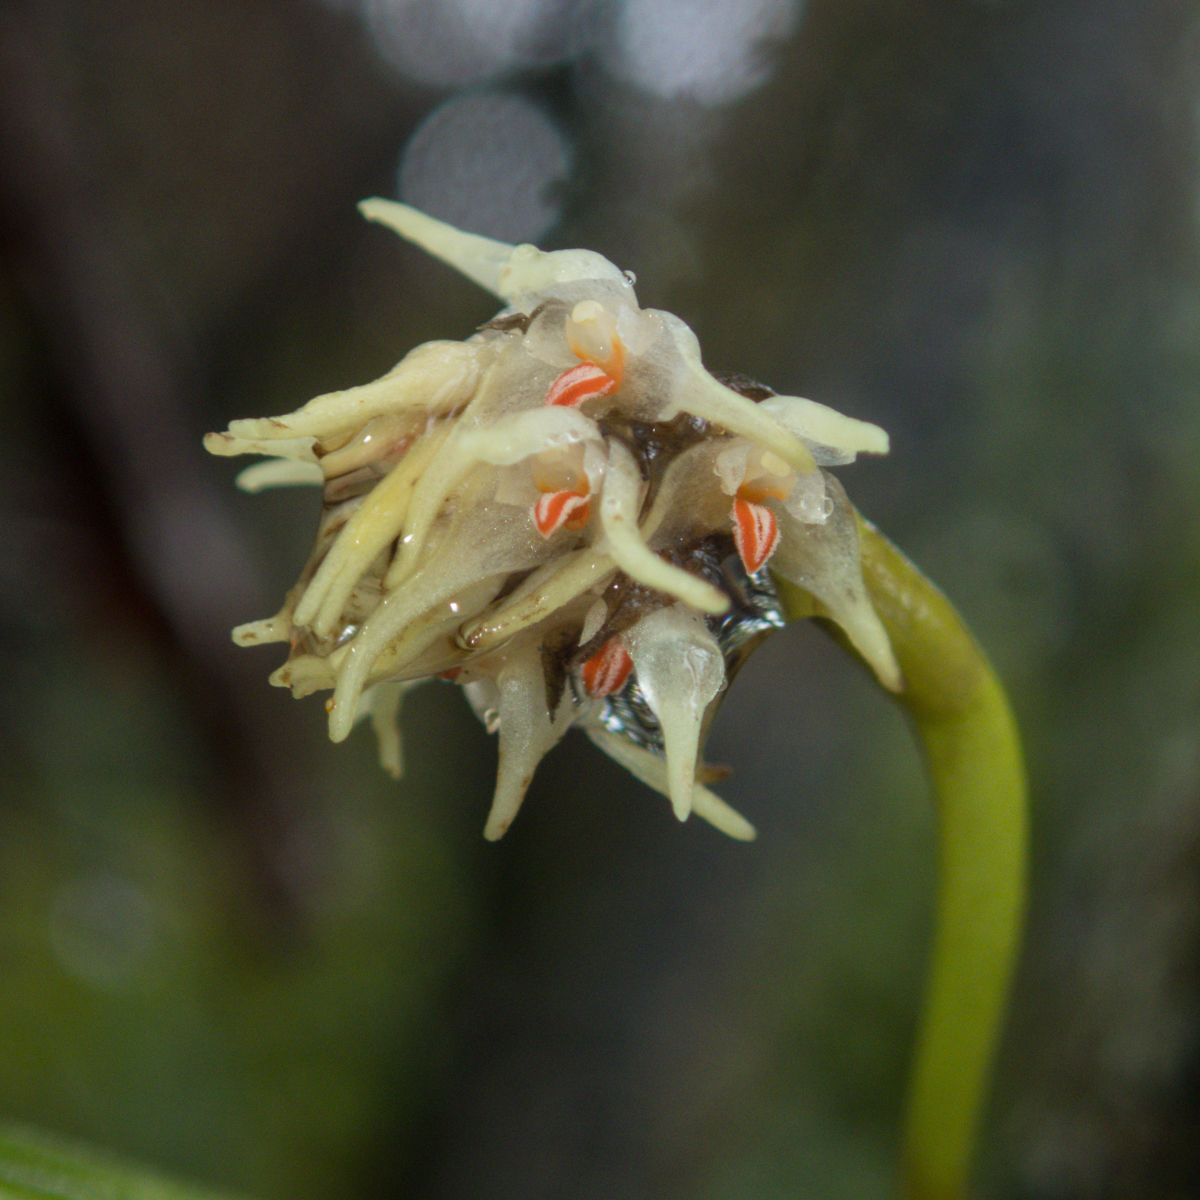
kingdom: Plantae
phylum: Tracheophyta
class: Liliopsida
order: Asparagales
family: Orchidaceae
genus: Bulbophyllum
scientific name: Bulbophyllum odoratissimum
